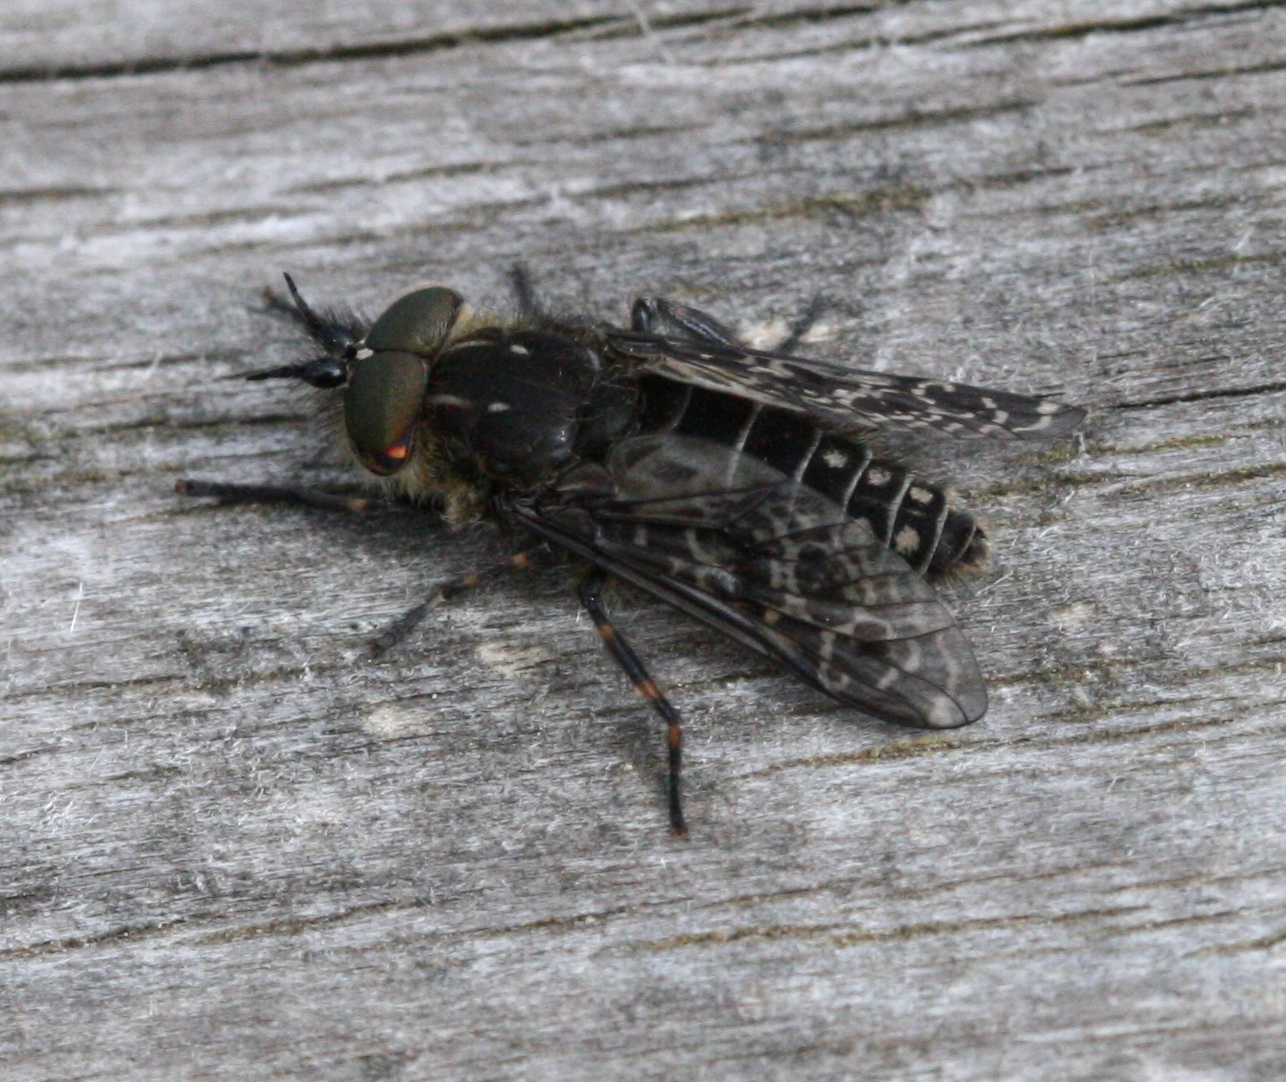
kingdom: Animalia
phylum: Arthropoda
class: Insecta
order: Diptera
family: Tabanidae
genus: Haematopota
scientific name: Haematopota crassicornis
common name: Black-horned cleg
